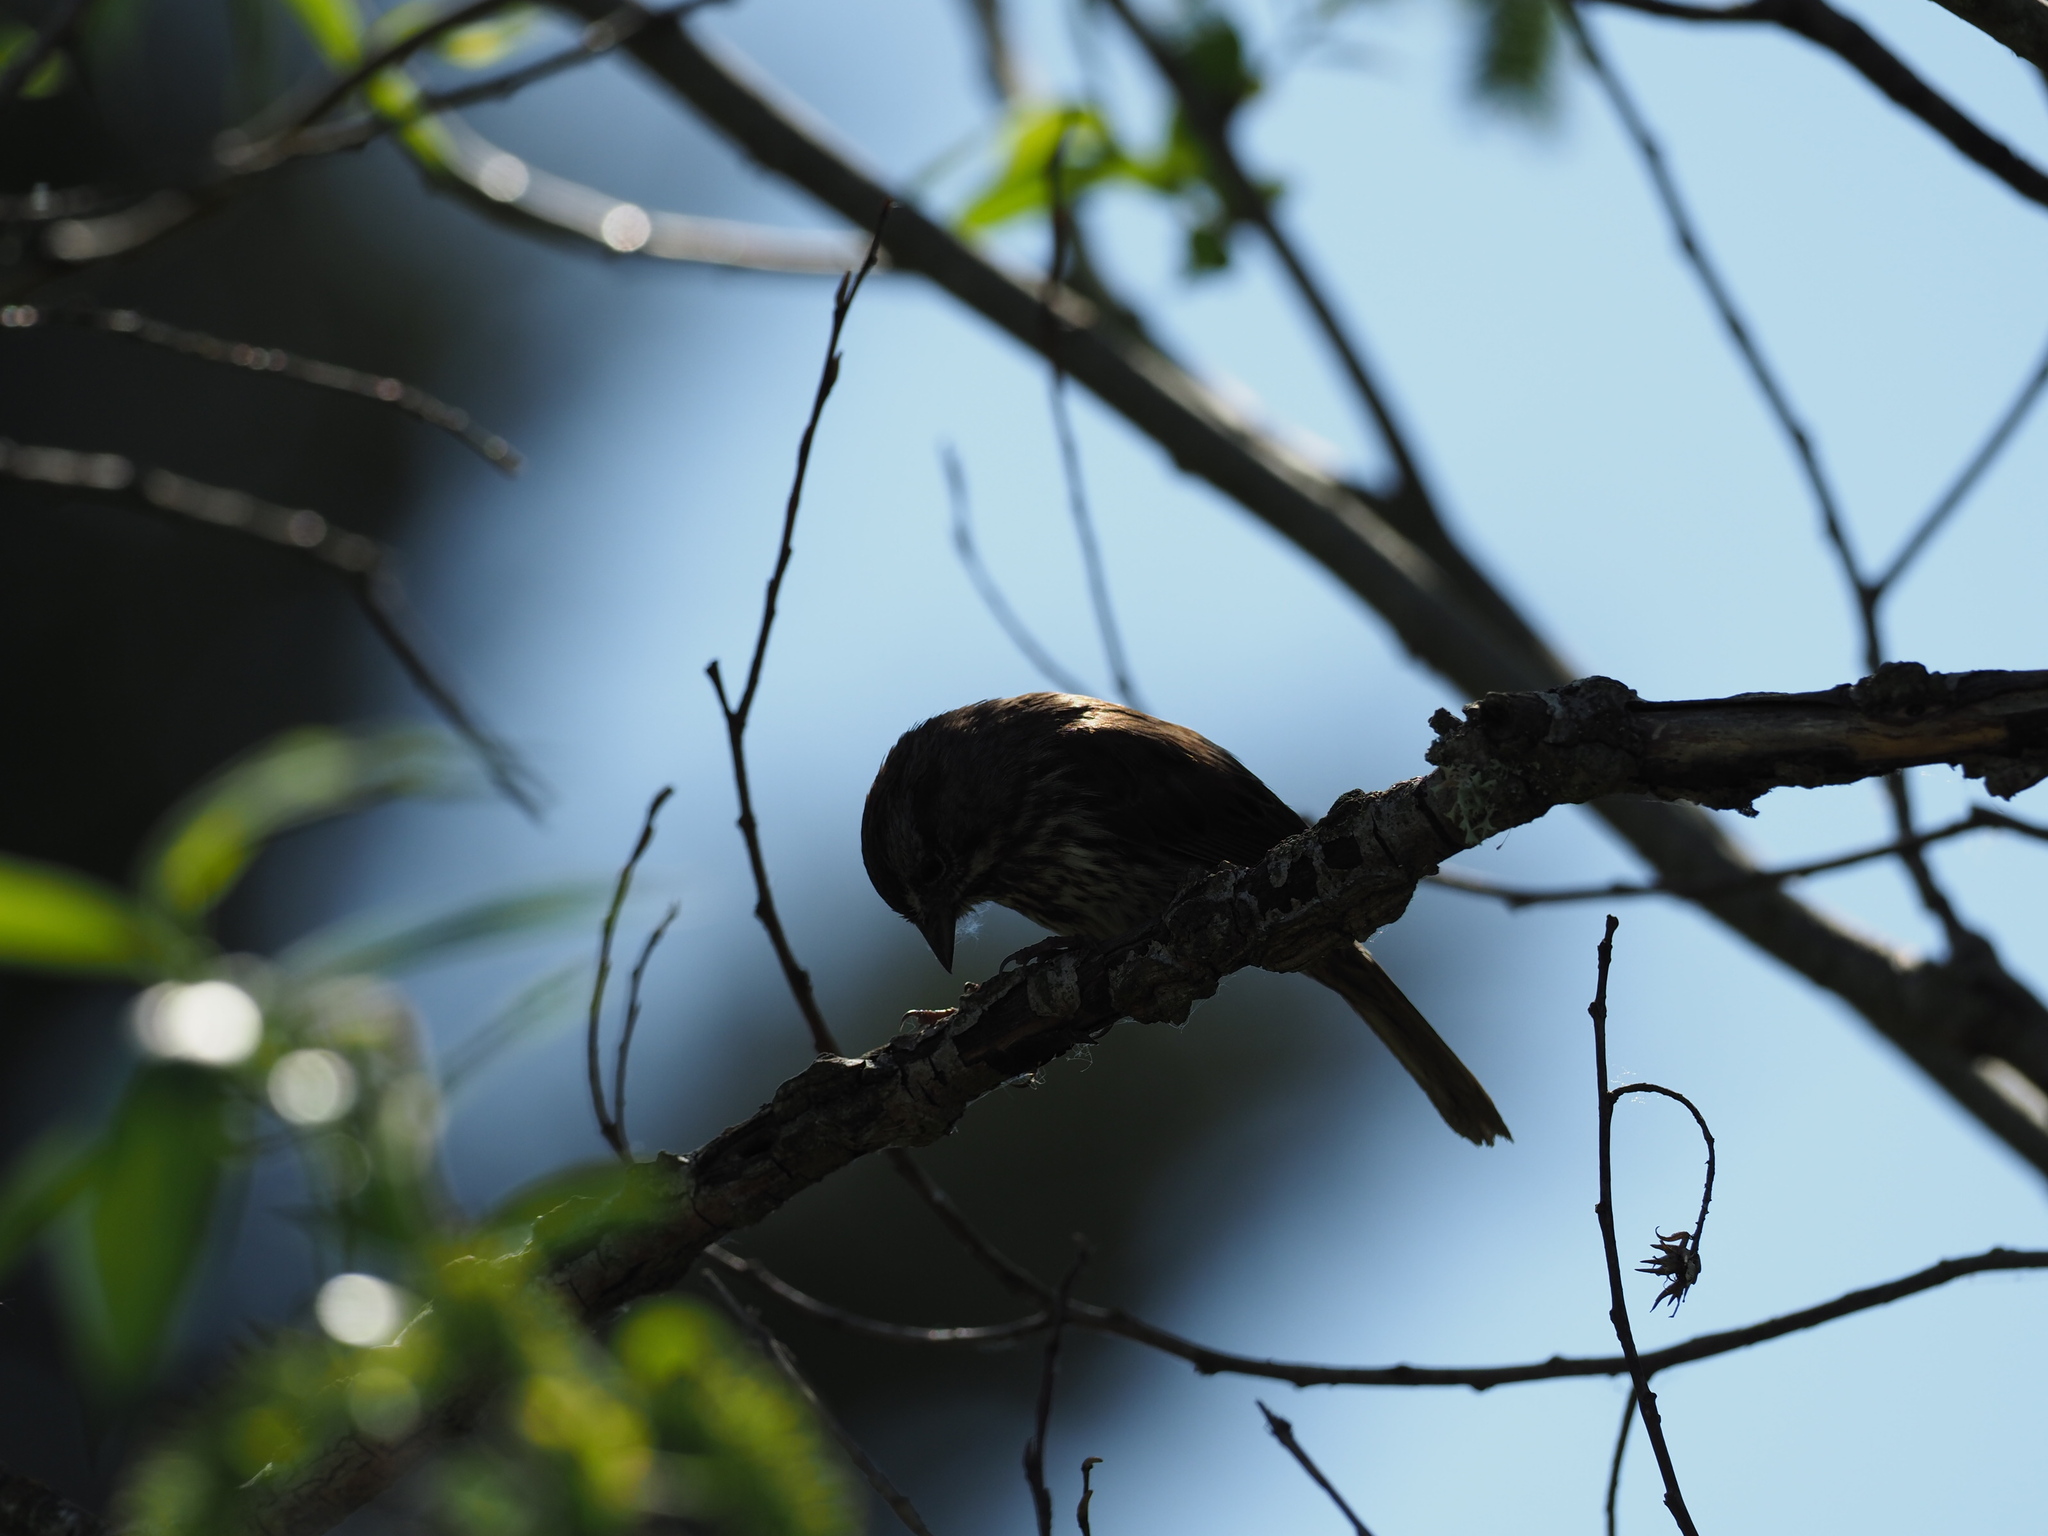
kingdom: Animalia
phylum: Chordata
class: Aves
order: Passeriformes
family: Passerellidae
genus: Melospiza
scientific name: Melospiza melodia
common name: Song sparrow
